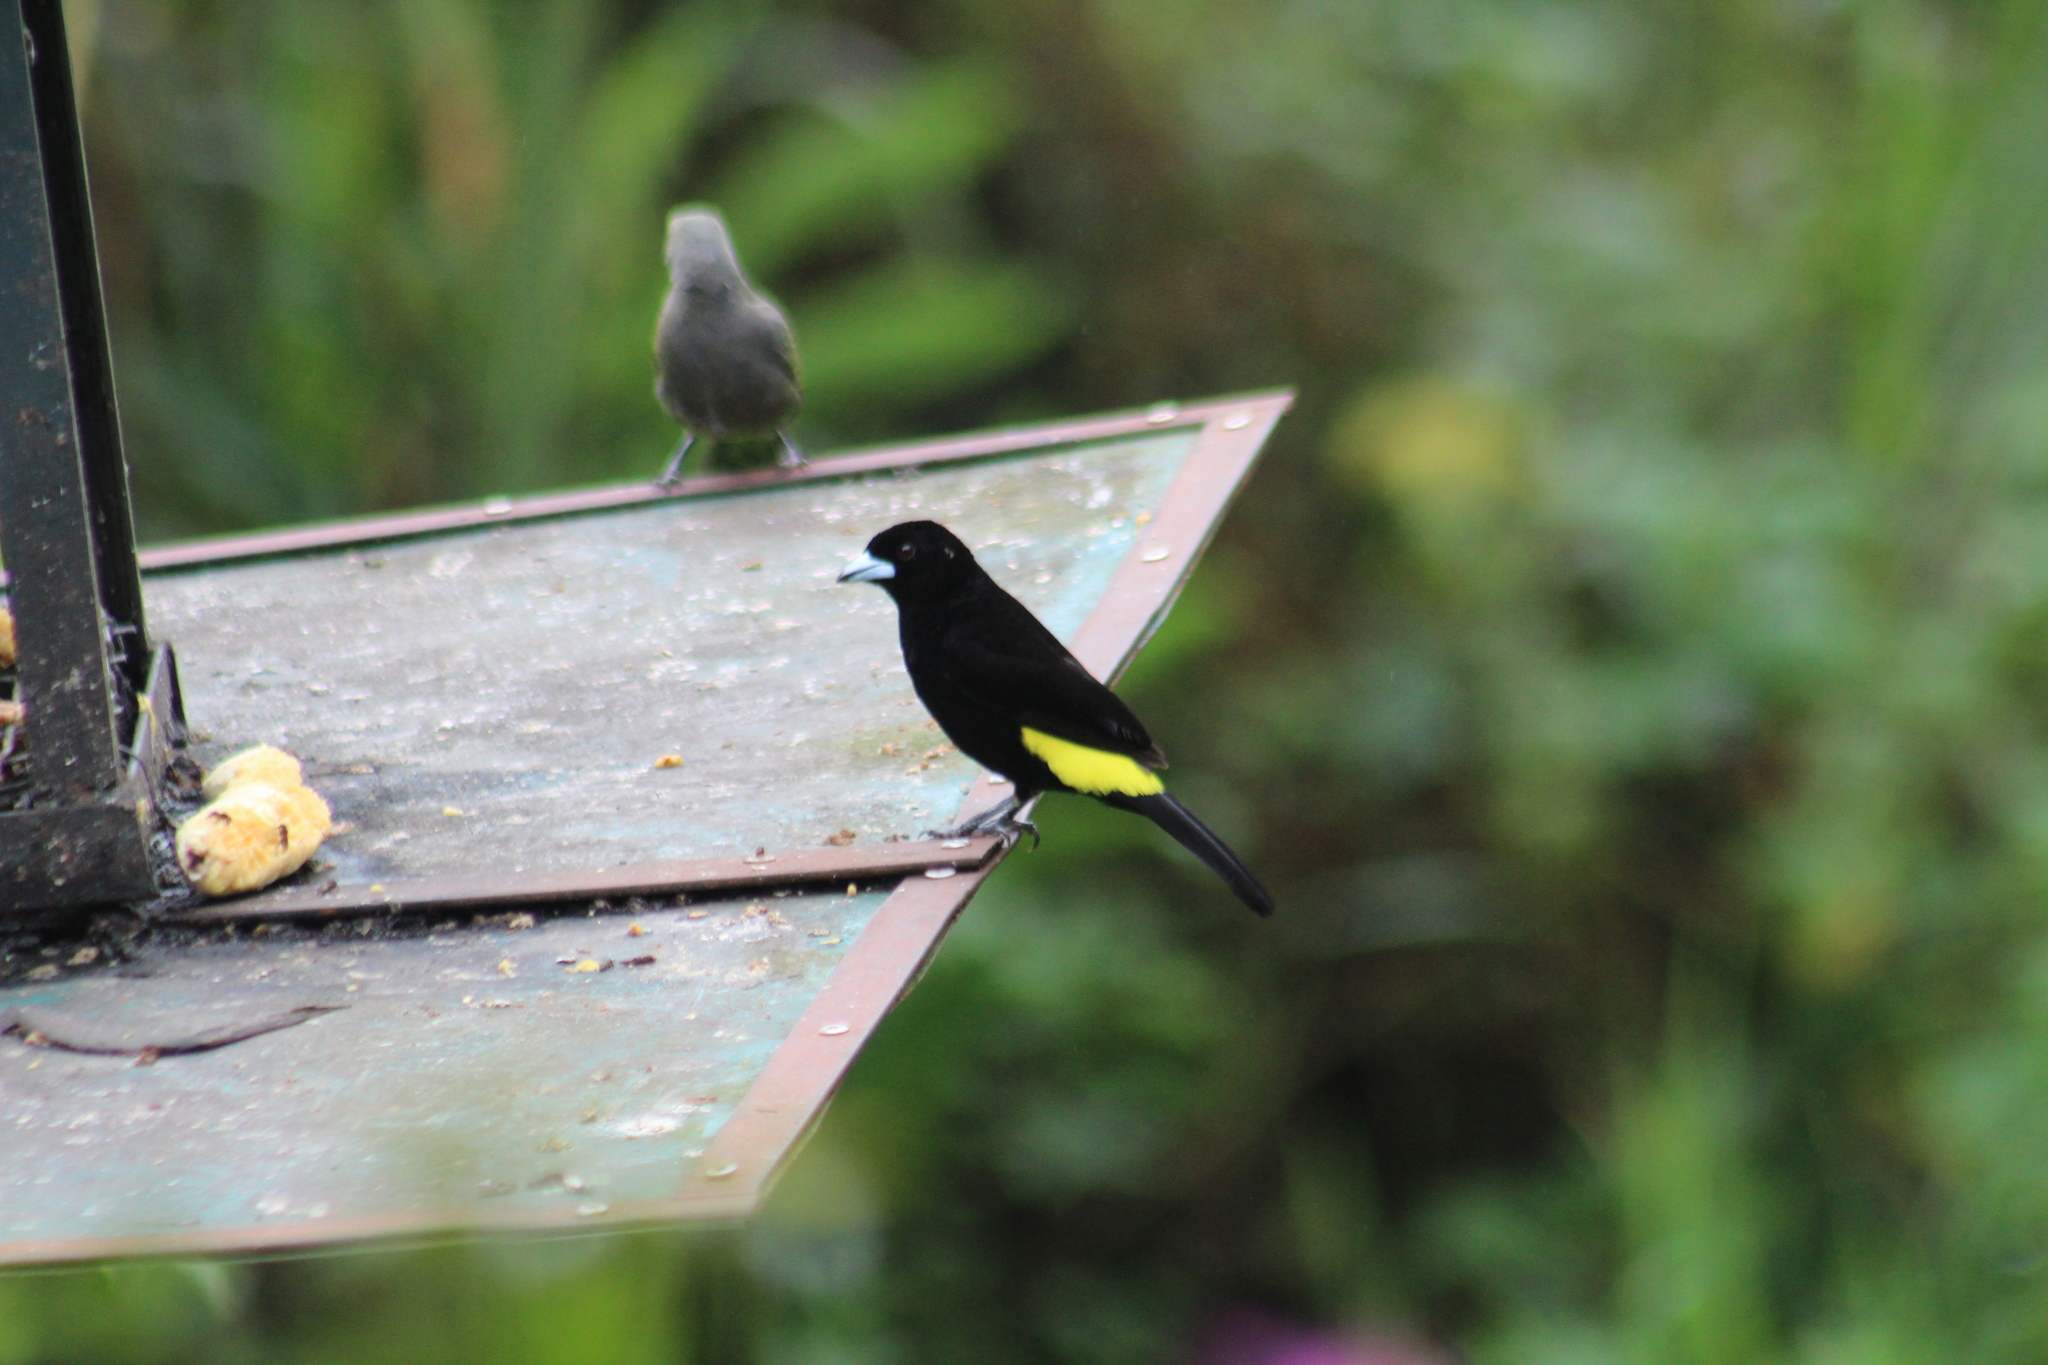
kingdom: Animalia
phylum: Chordata
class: Aves
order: Passeriformes
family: Thraupidae
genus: Ramphocelus
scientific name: Ramphocelus icteronotus
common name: Lemon-rumped tanager
